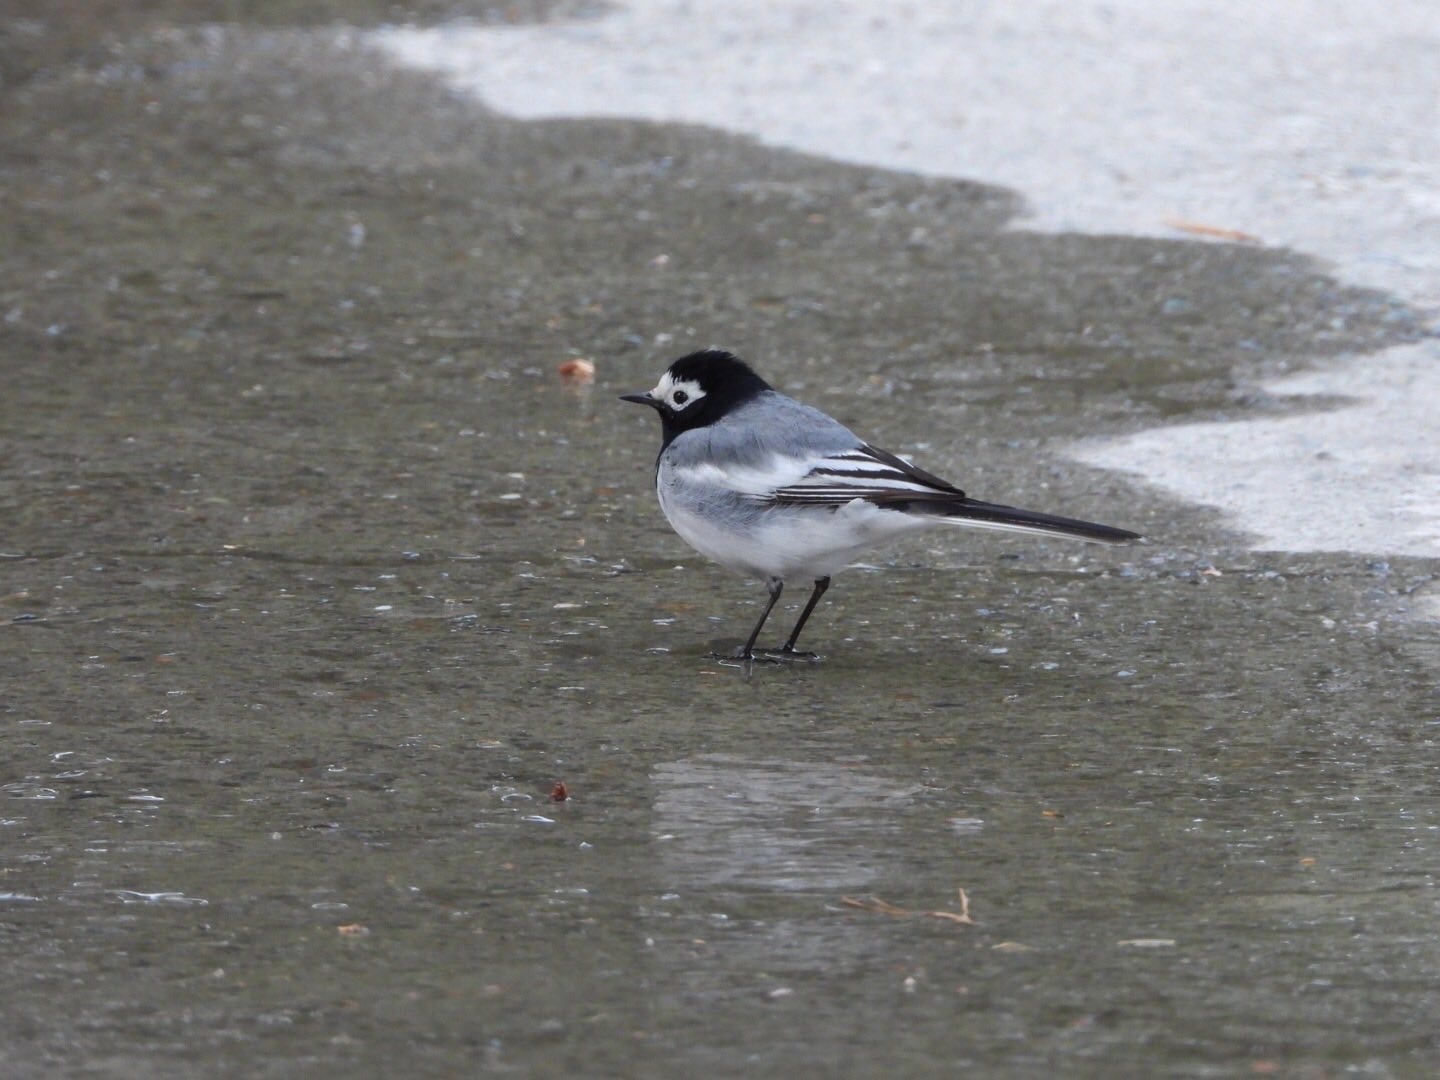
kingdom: Animalia
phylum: Chordata
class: Aves
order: Passeriformes
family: Motacillidae
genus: Motacilla
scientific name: Motacilla alba
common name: White wagtail
